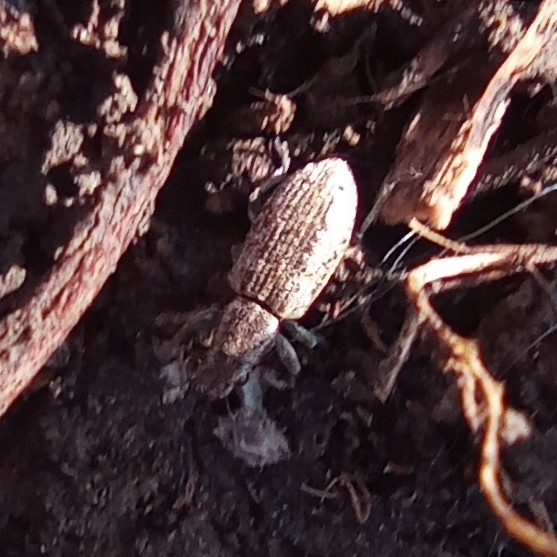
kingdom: Animalia
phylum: Arthropoda
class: Insecta
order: Coleoptera
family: Curculionidae
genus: Sitona
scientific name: Sitona callosus
